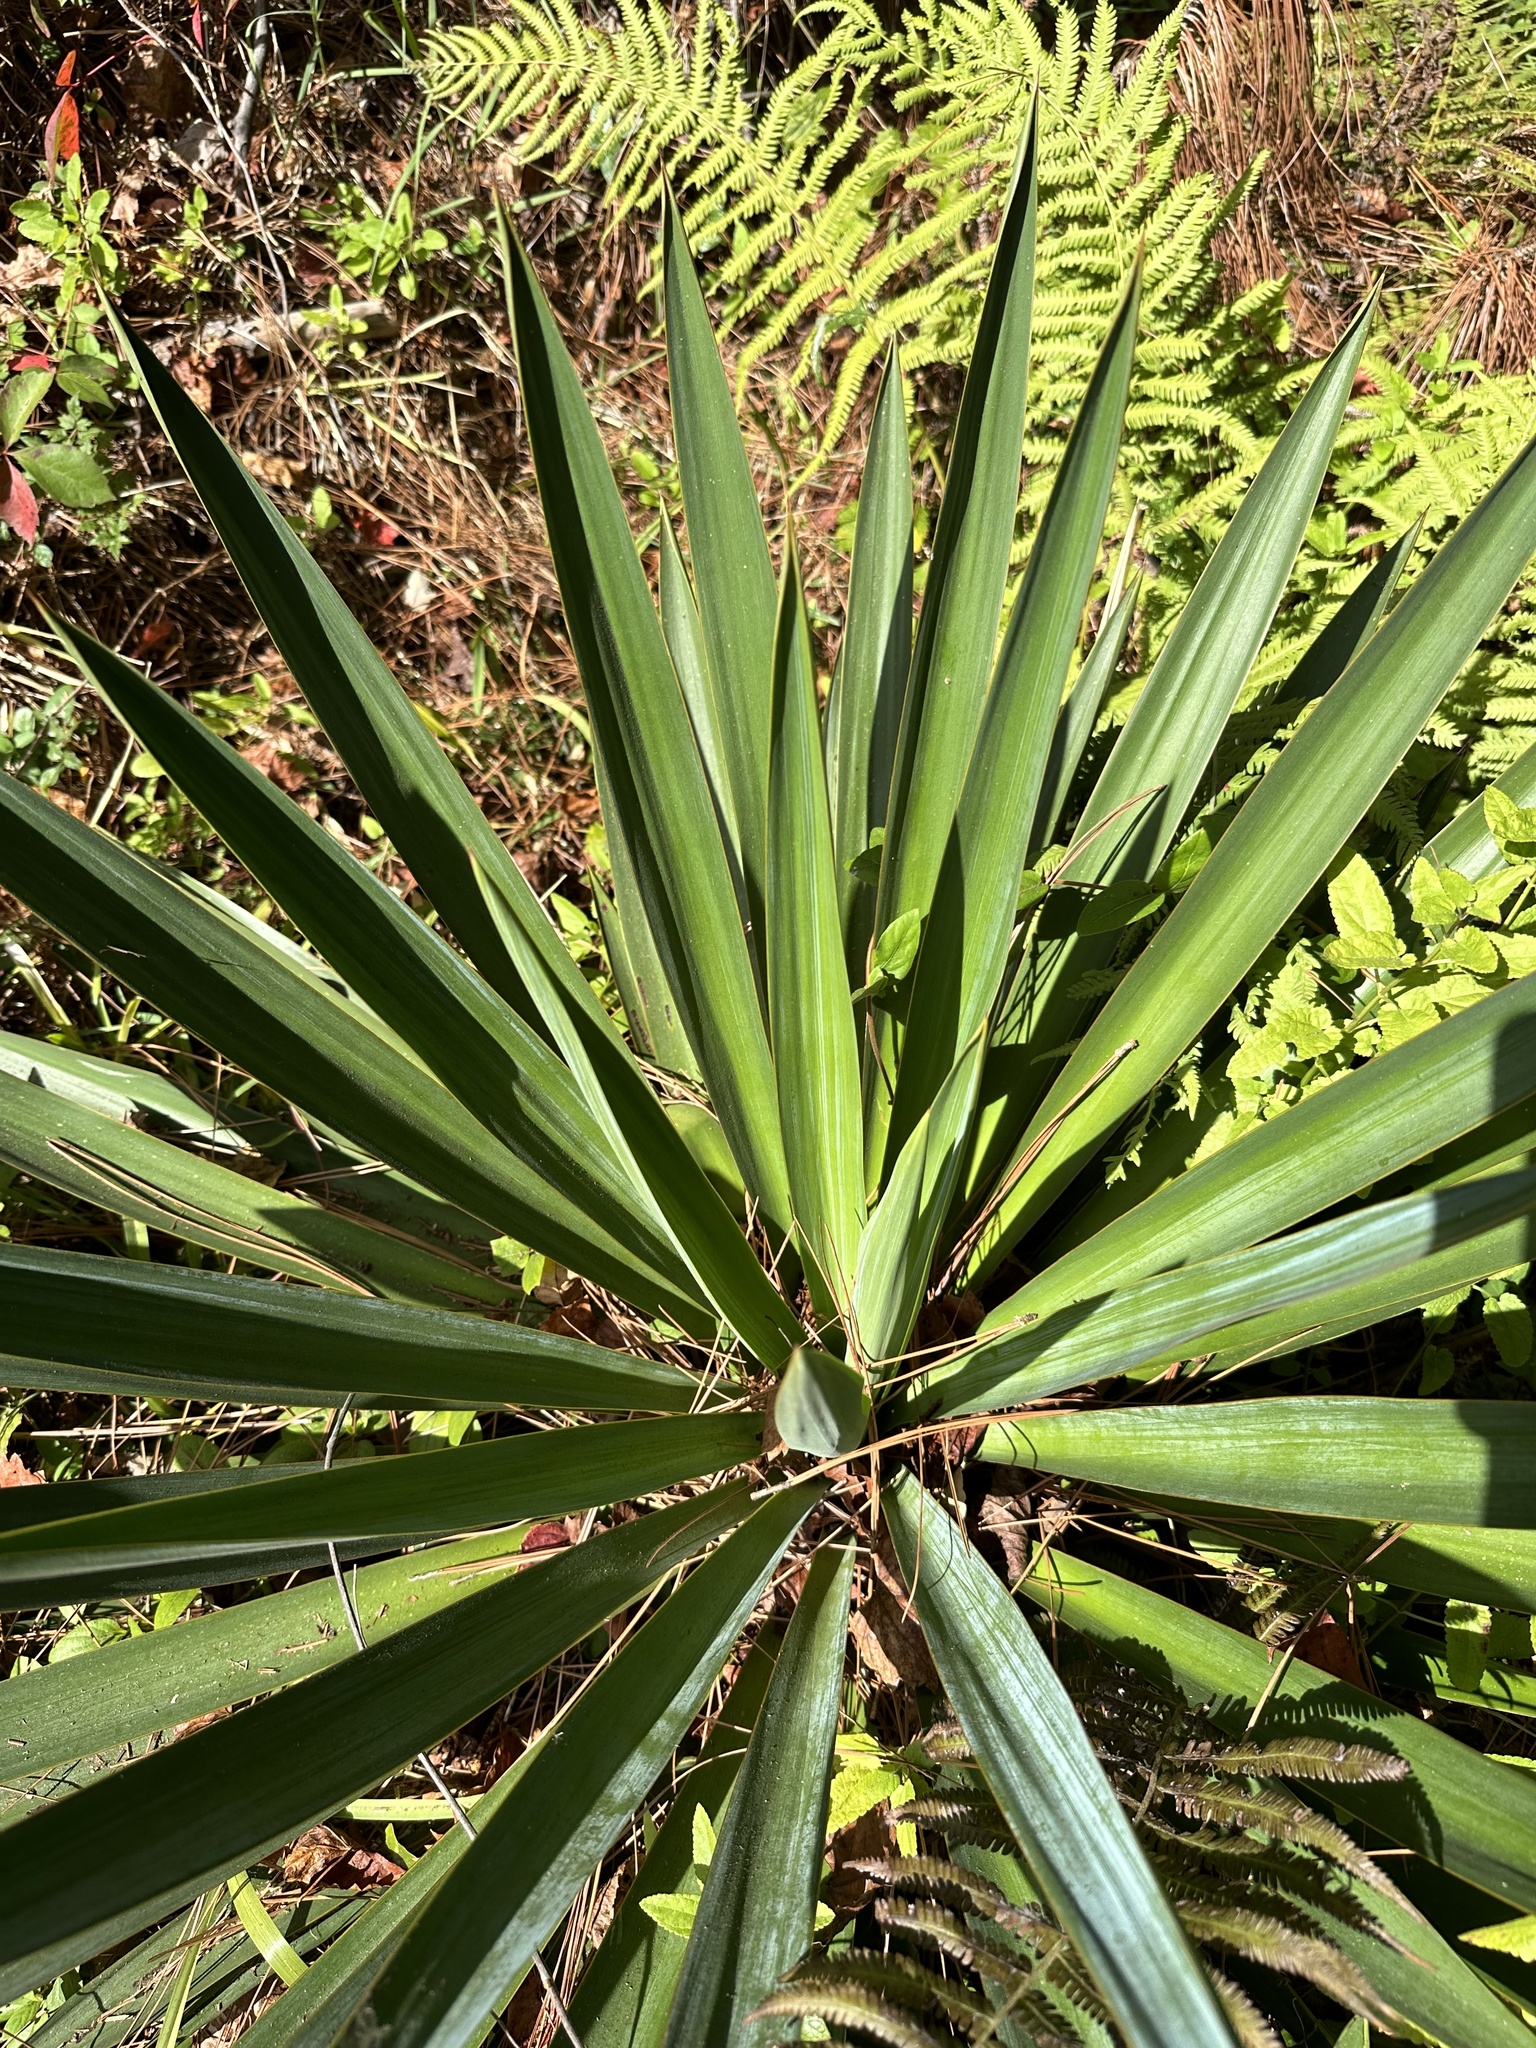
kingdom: Plantae
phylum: Tracheophyta
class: Liliopsida
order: Asparagales
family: Asparagaceae
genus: Yucca
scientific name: Yucca filamentosa
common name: Adam's-needle
